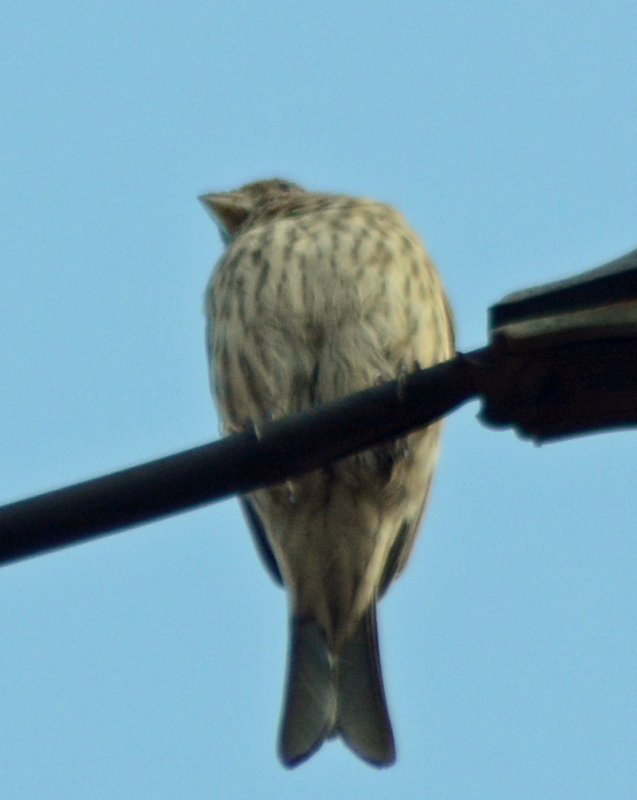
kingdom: Animalia
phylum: Chordata
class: Aves
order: Passeriformes
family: Fringillidae
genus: Haemorhous
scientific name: Haemorhous mexicanus
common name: House finch
